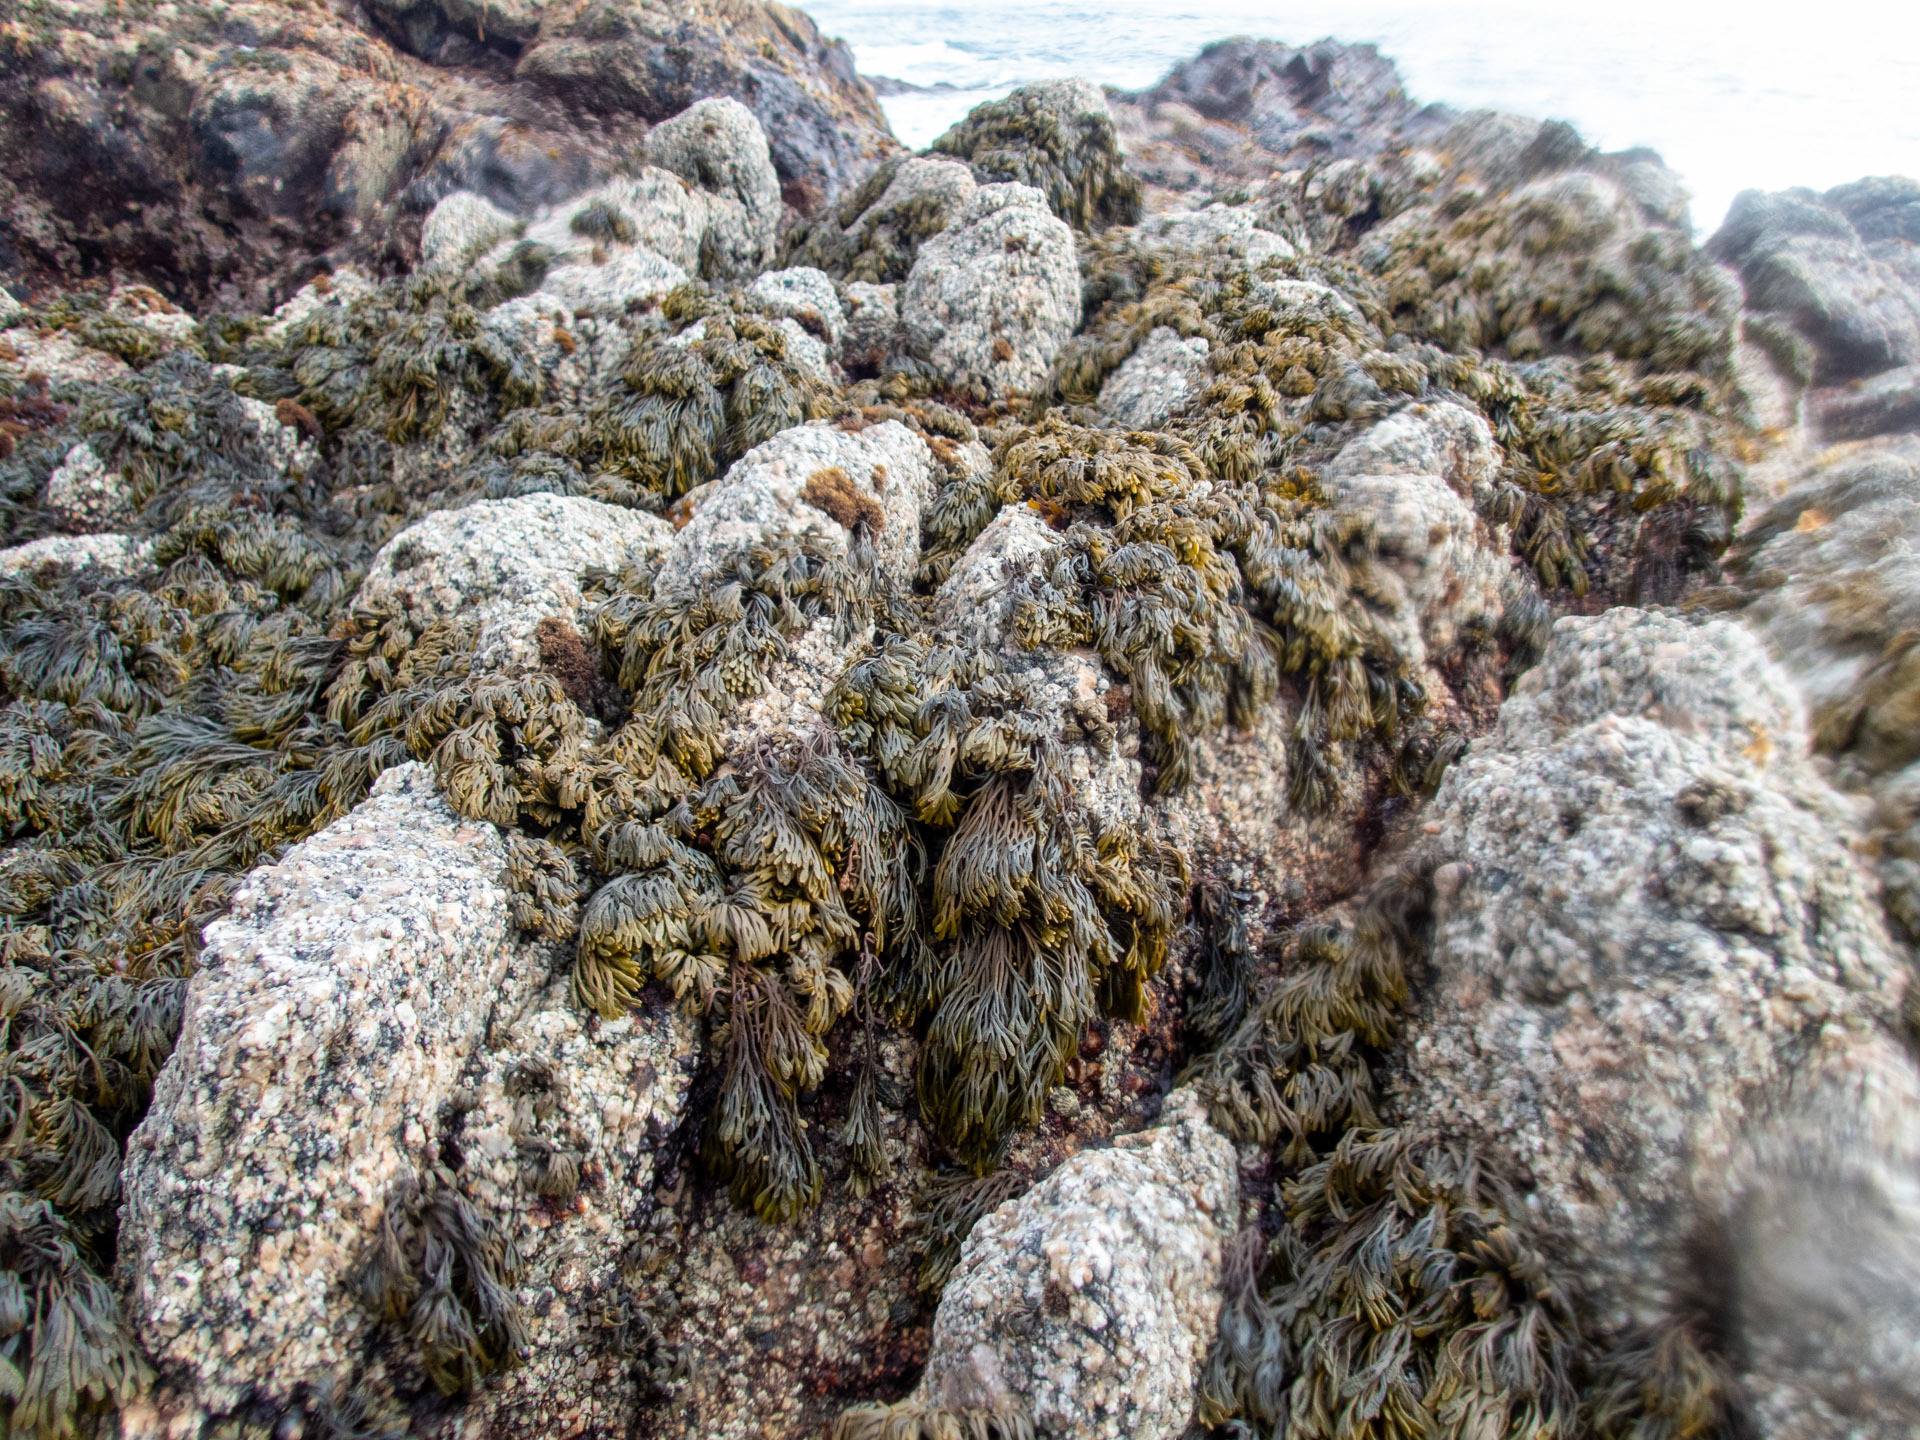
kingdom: Chromista
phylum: Ochrophyta
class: Phaeophyceae
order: Fucales
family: Fucaceae
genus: Silvetia
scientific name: Silvetia
